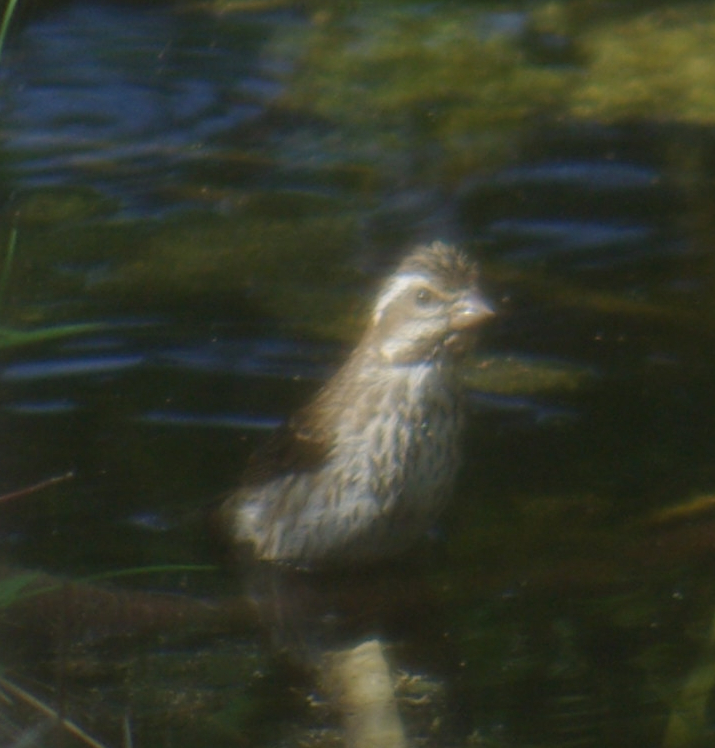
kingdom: Animalia
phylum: Chordata
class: Aves
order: Passeriformes
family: Fringillidae
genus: Haemorhous
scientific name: Haemorhous purpureus
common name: Purple finch
